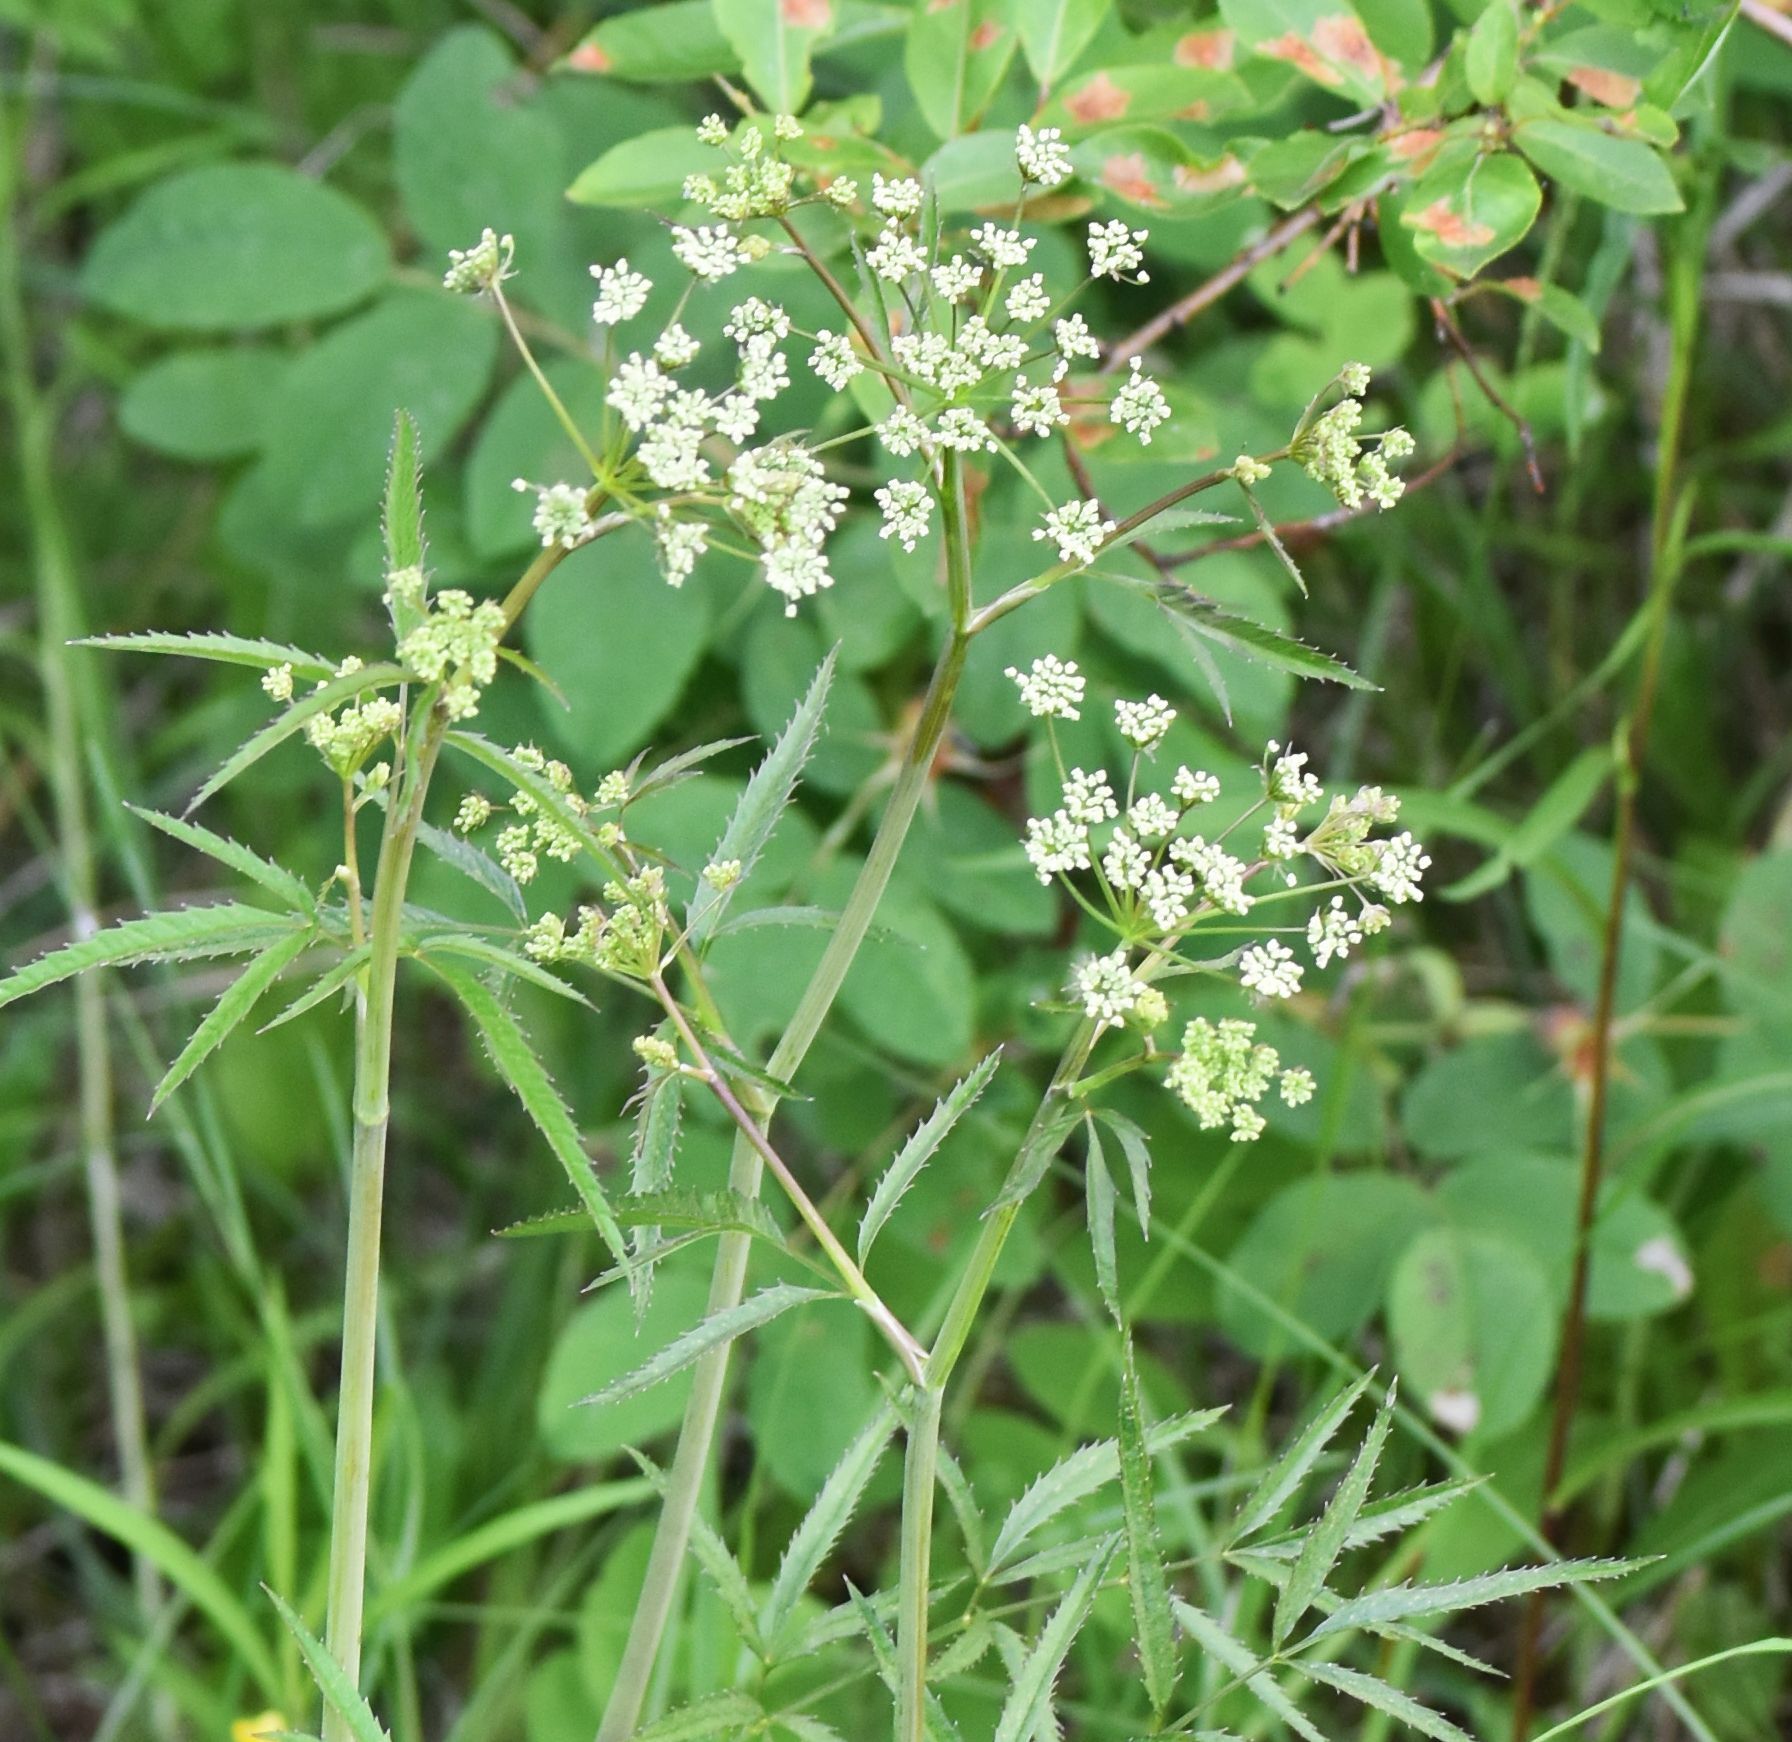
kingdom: Plantae
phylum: Tracheophyta
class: Magnoliopsida
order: Apiales
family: Apiaceae
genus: Cicuta
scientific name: Cicuta maculata
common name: Spotted cowbane
